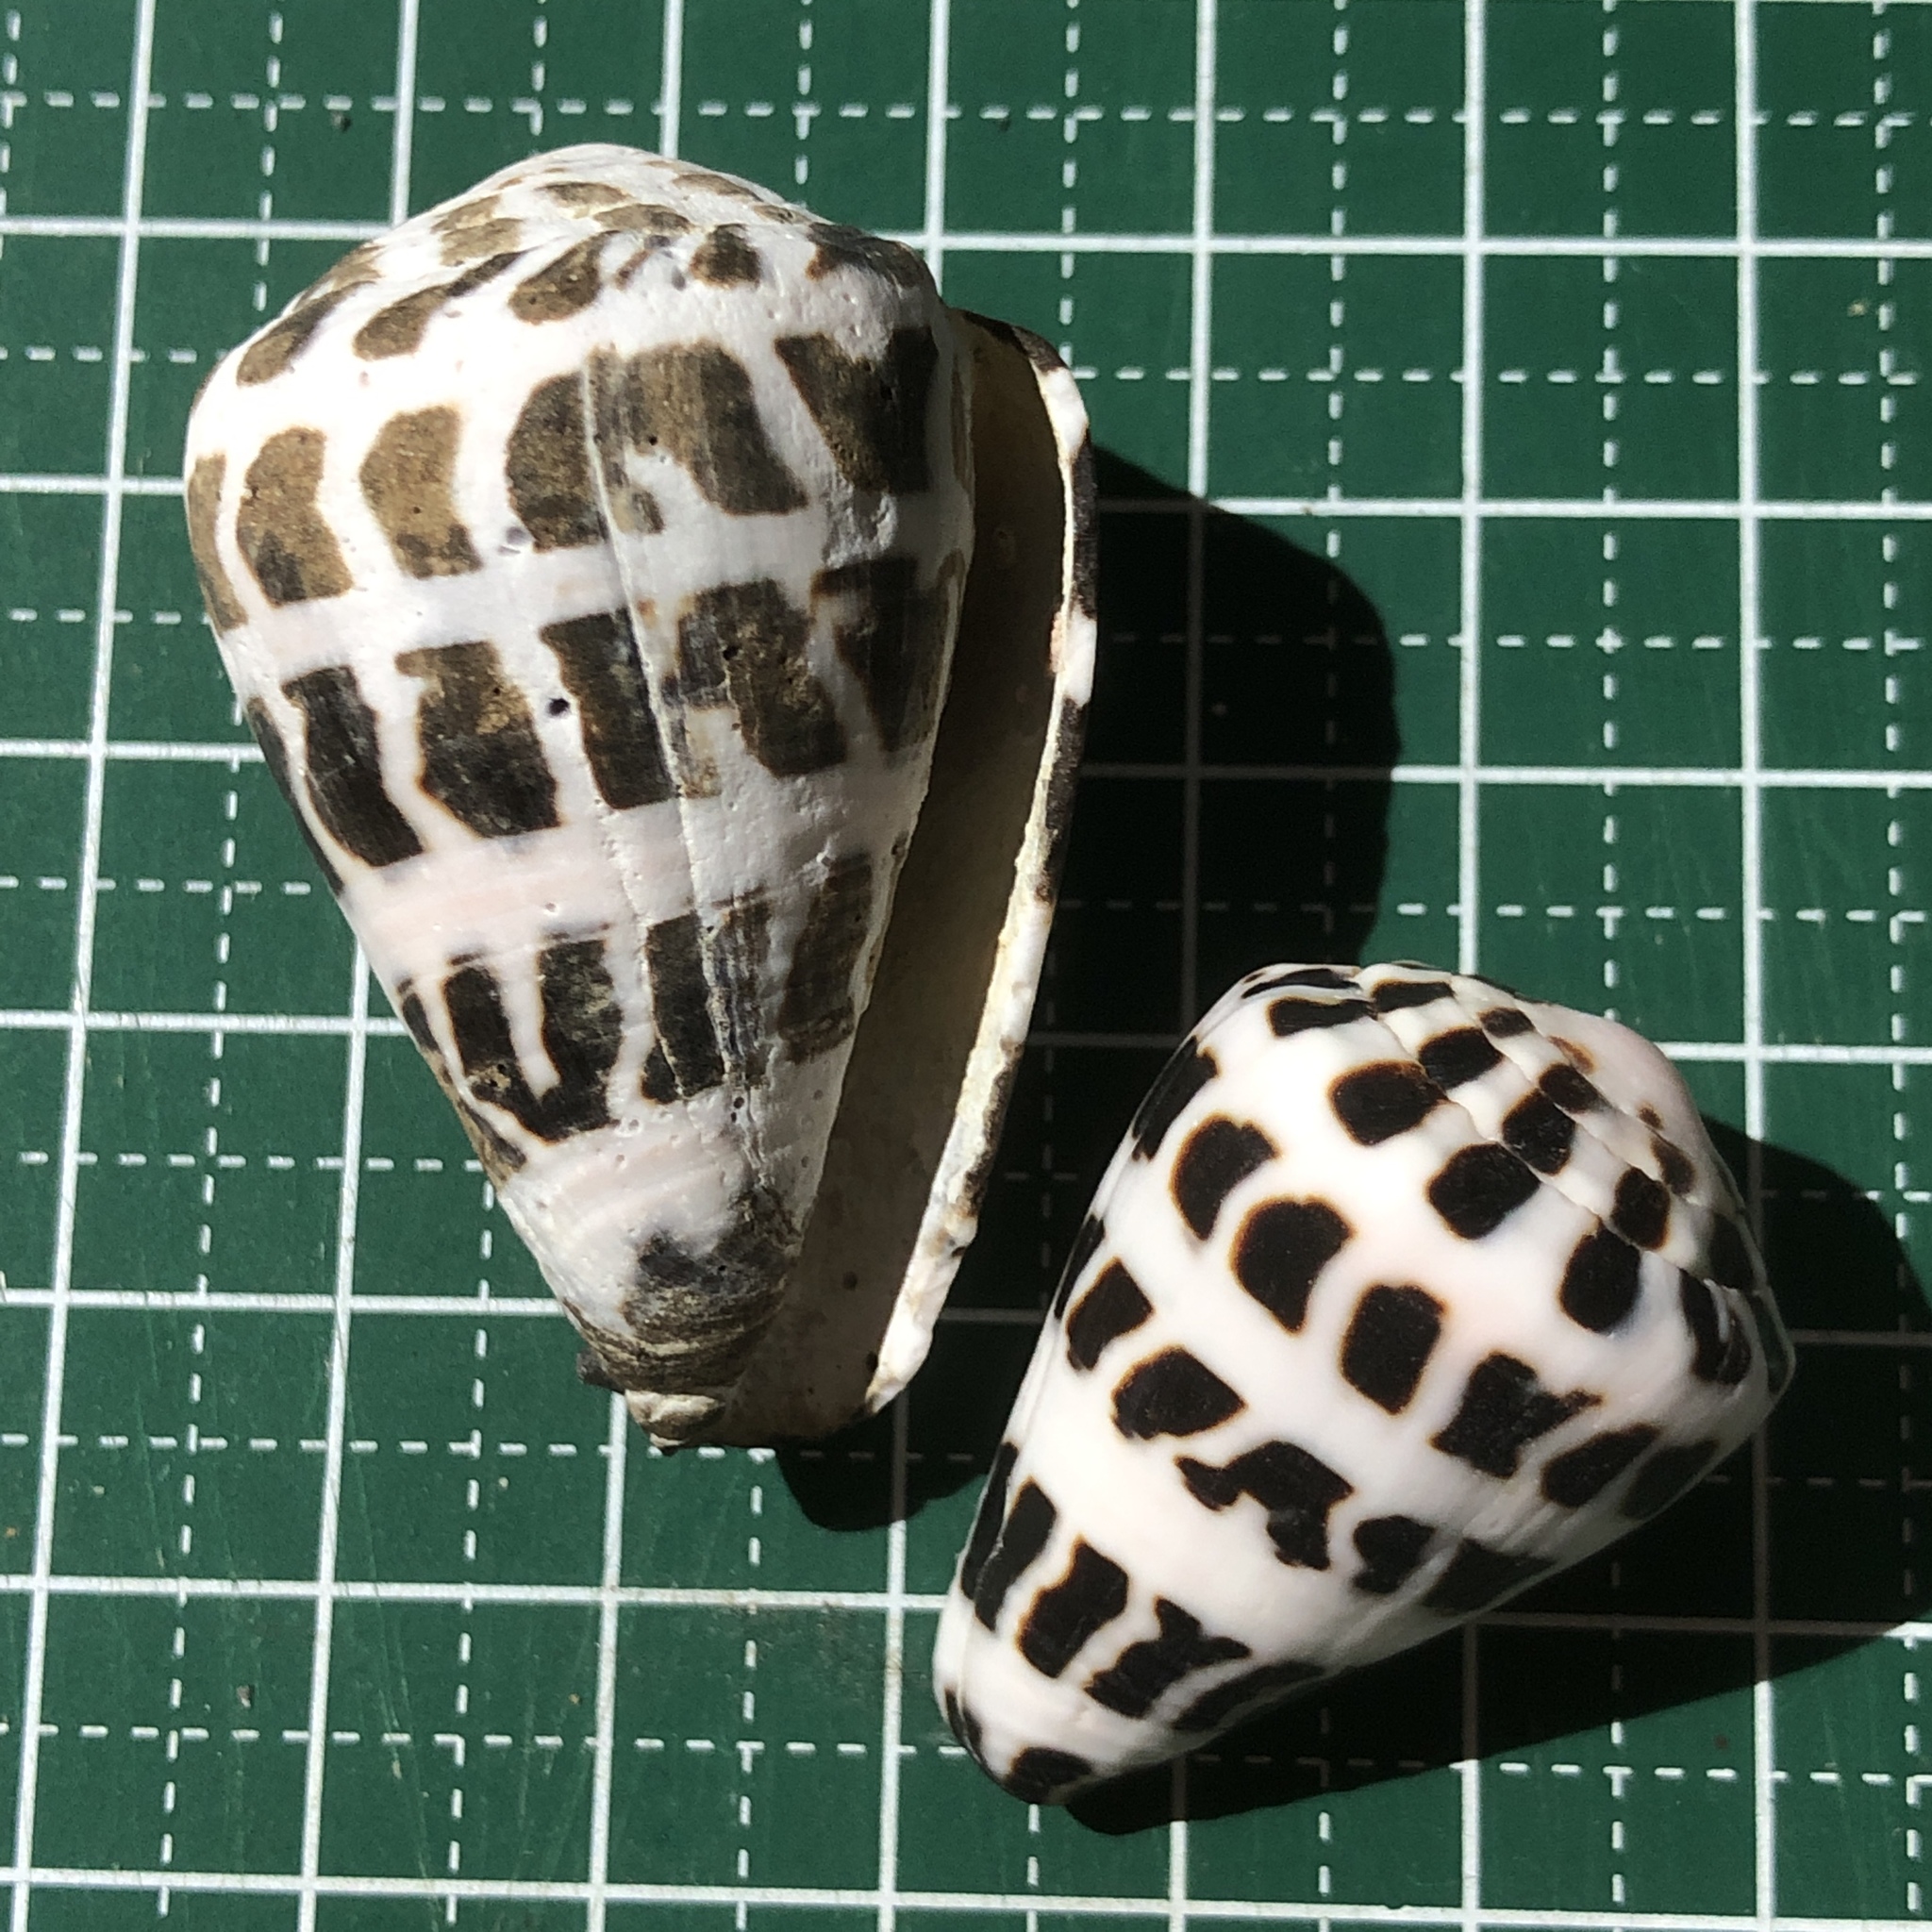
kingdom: Animalia
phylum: Mollusca
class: Gastropoda
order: Neogastropoda
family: Conidae
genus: Conus
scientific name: Conus ebraeus
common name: Hebrew cone
